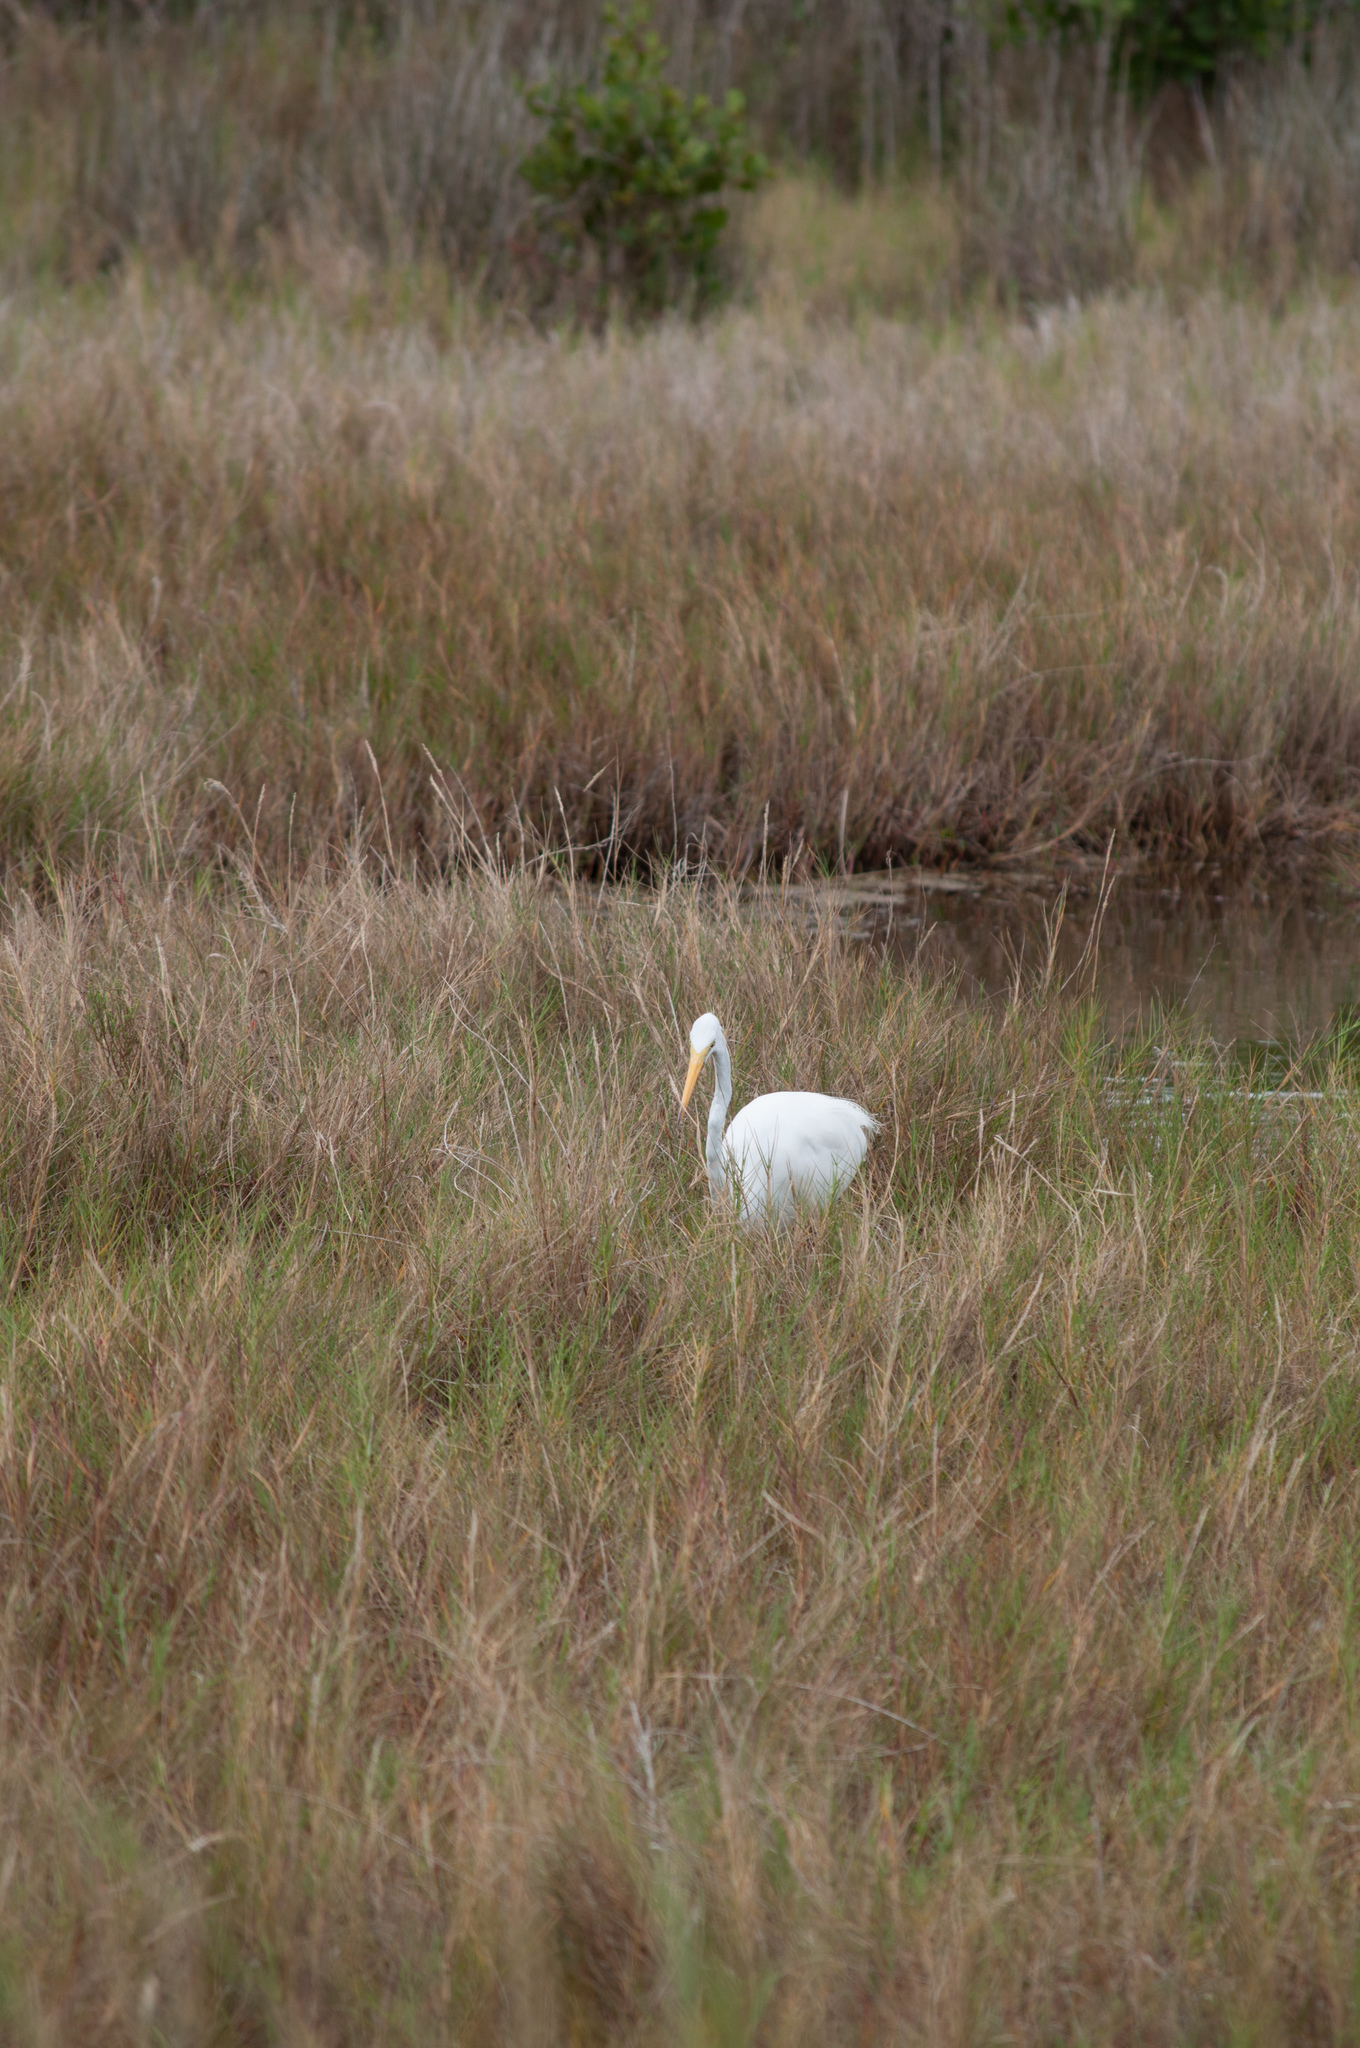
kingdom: Animalia
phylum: Chordata
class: Aves
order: Pelecaniformes
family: Ardeidae
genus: Ardea
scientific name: Ardea alba
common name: Great egret
